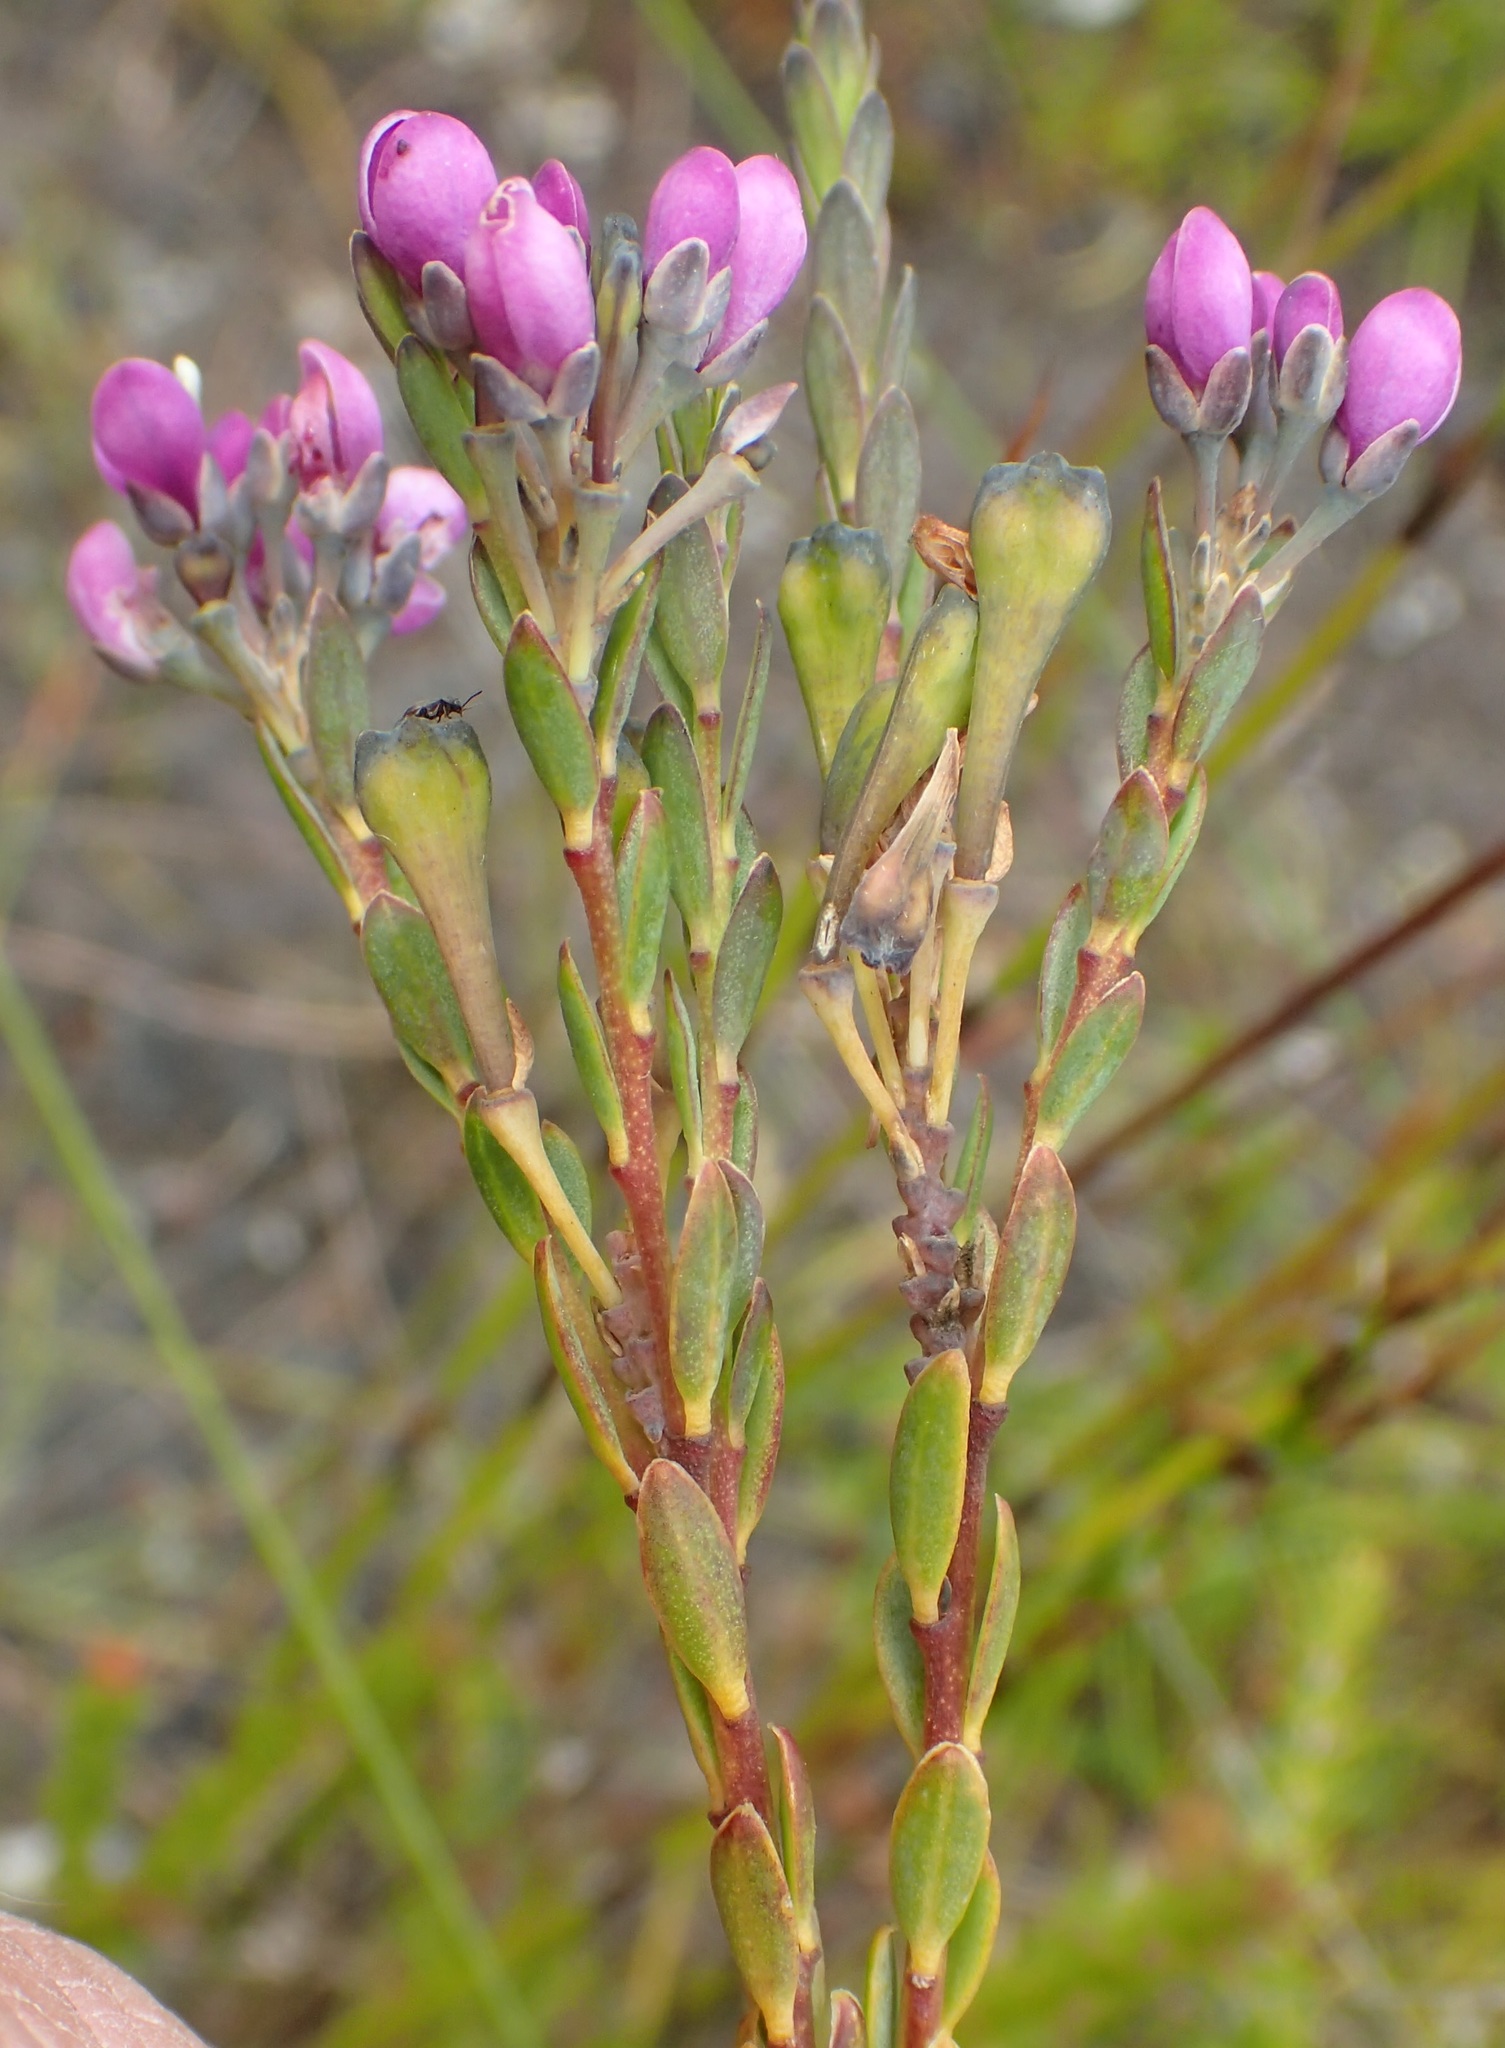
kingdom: Plantae
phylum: Tracheophyta
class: Magnoliopsida
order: Fabales
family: Polygalaceae
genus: Comesperma
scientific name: Comesperma retusum
